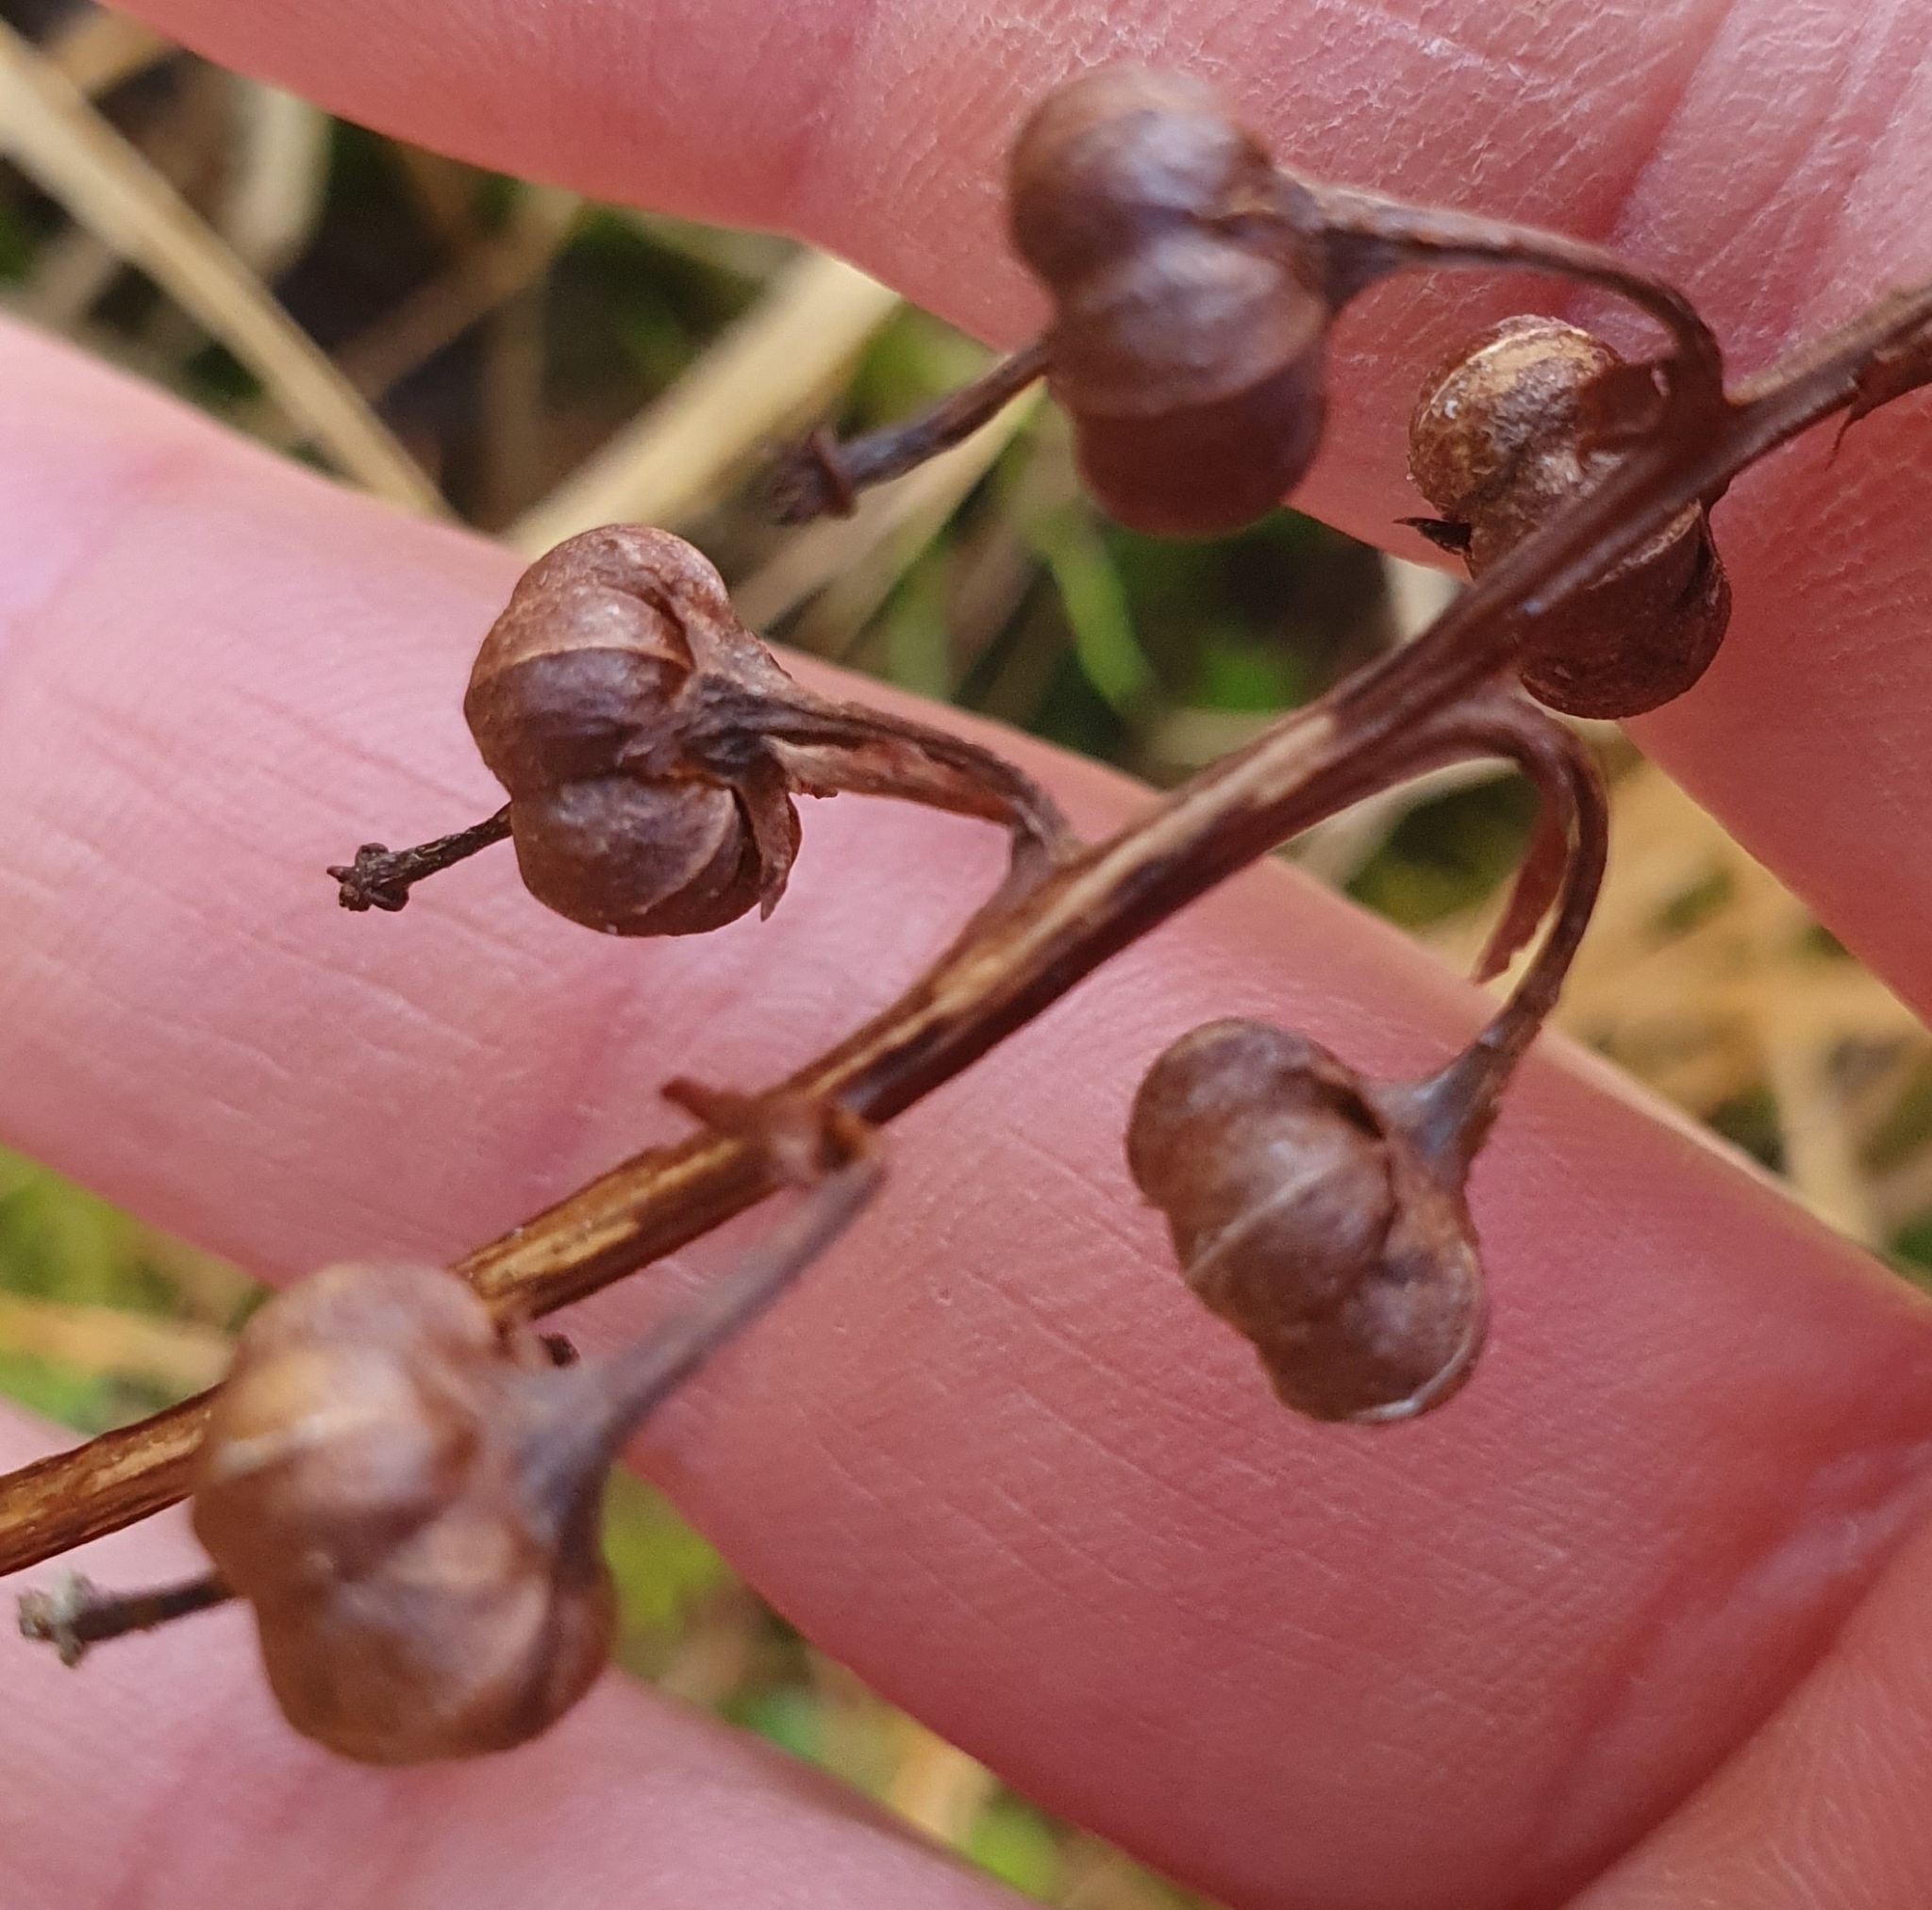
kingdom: Plantae
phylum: Tracheophyta
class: Magnoliopsida
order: Ericales
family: Ericaceae
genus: Pyrola
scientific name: Pyrola media
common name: Intermediate wintergreen
